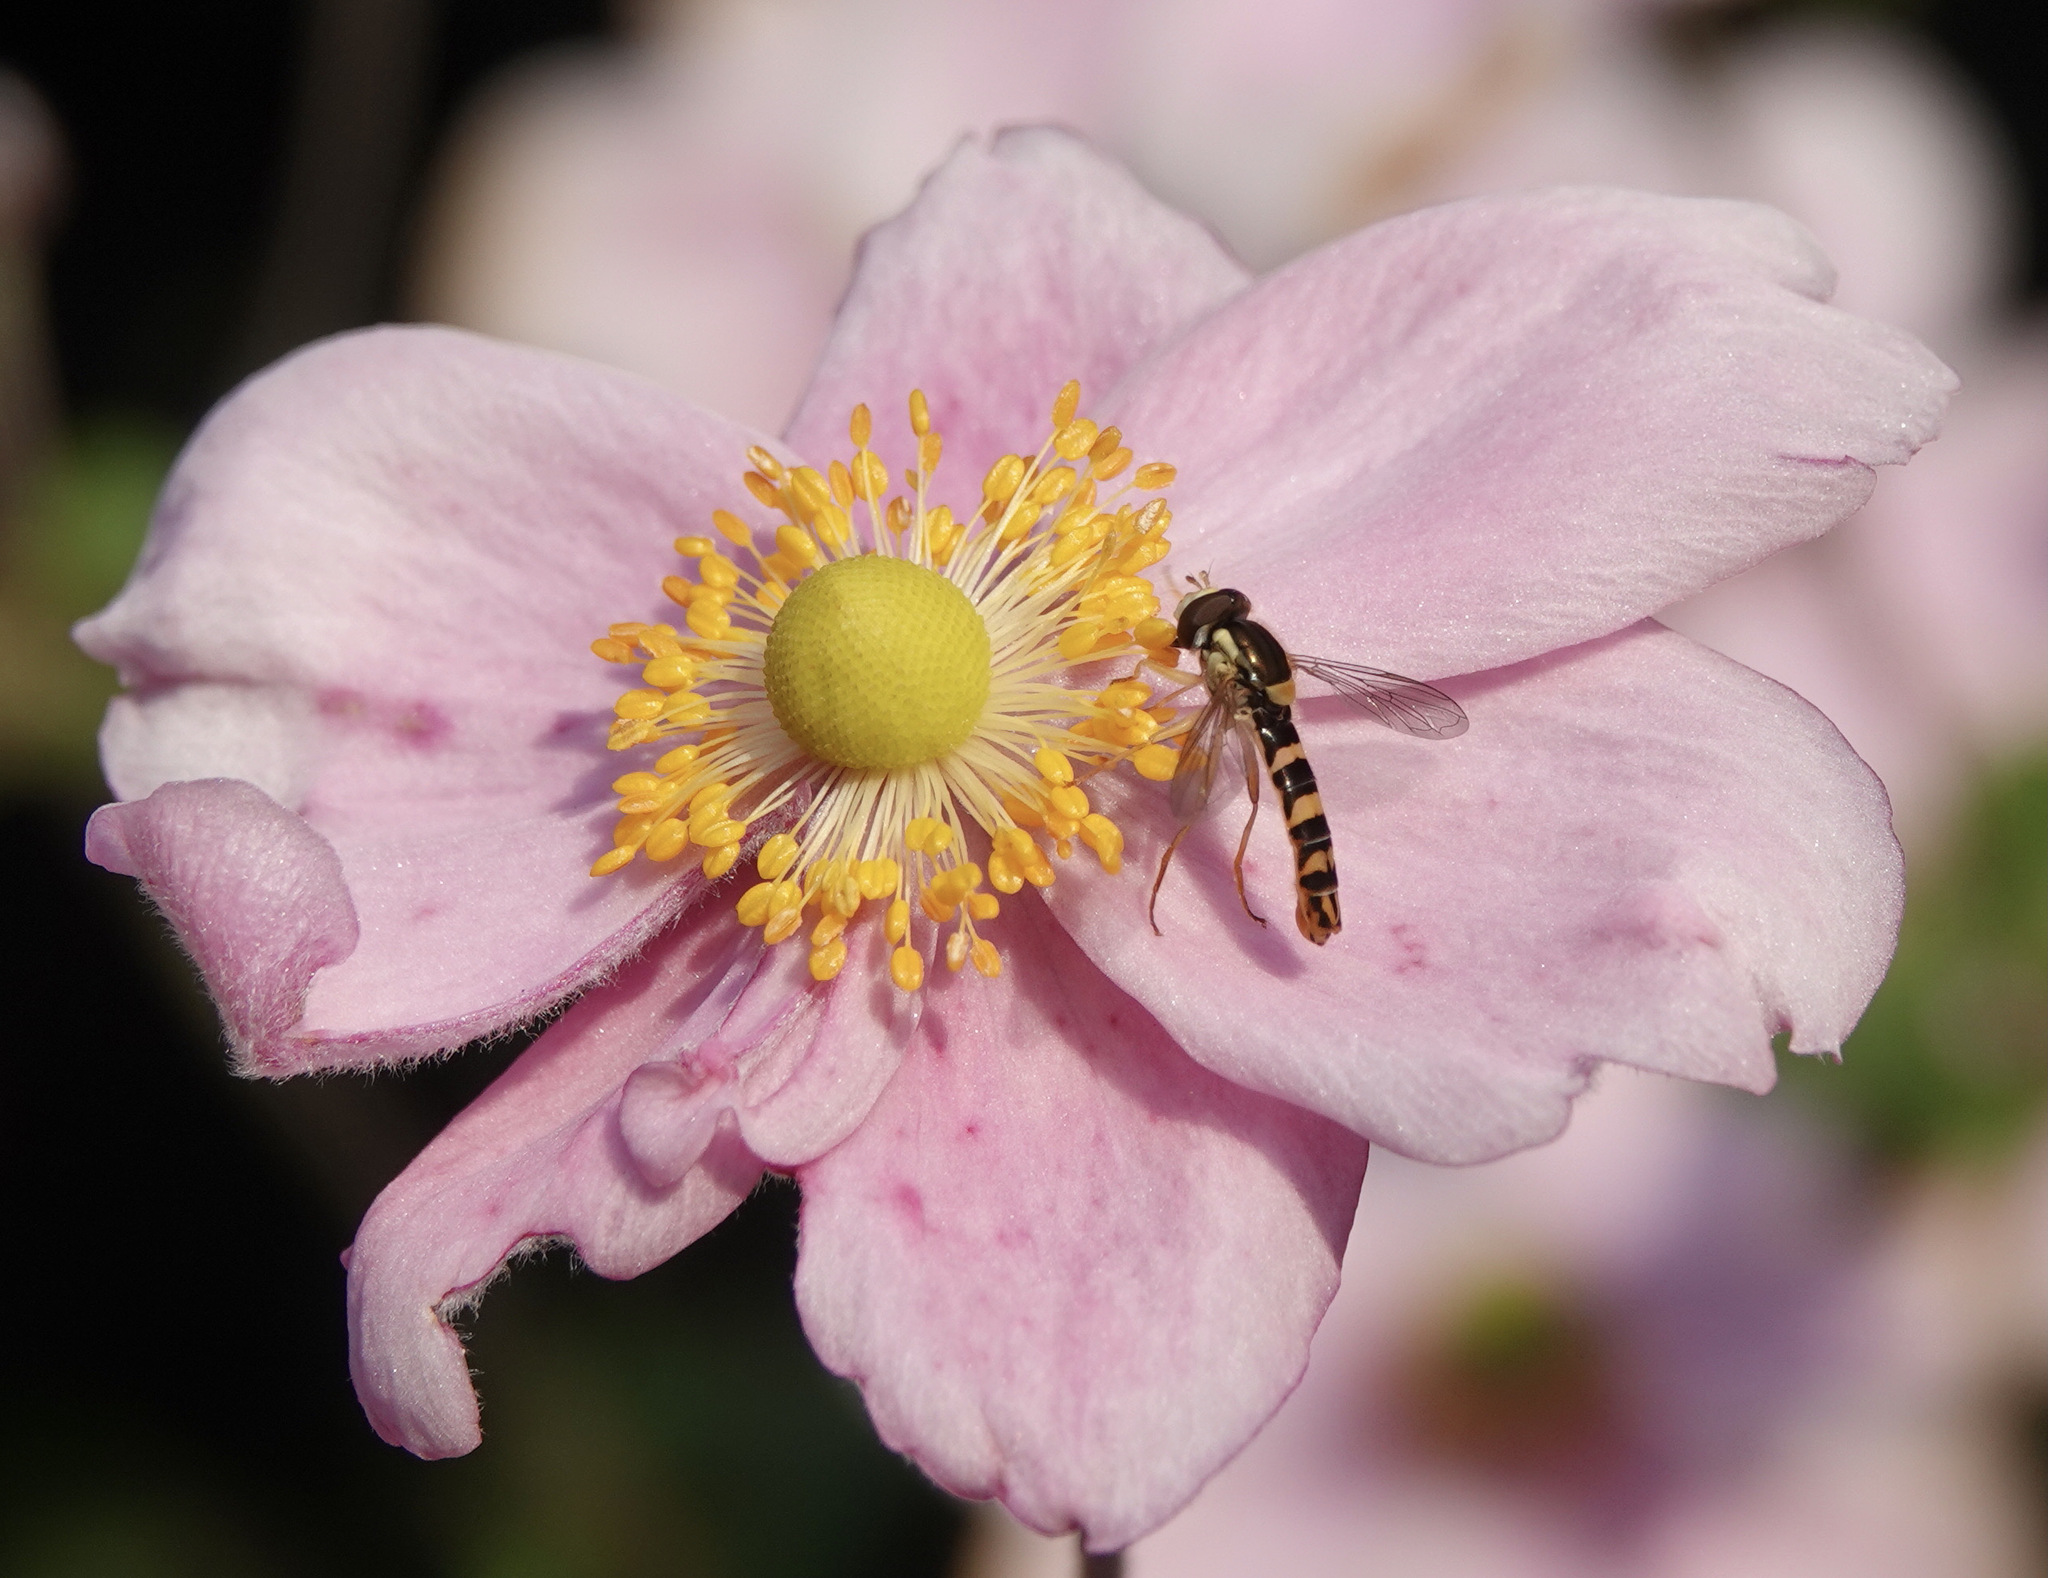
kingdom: Animalia
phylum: Arthropoda
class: Insecta
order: Diptera
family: Syrphidae
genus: Sphaerophoria
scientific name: Sphaerophoria
